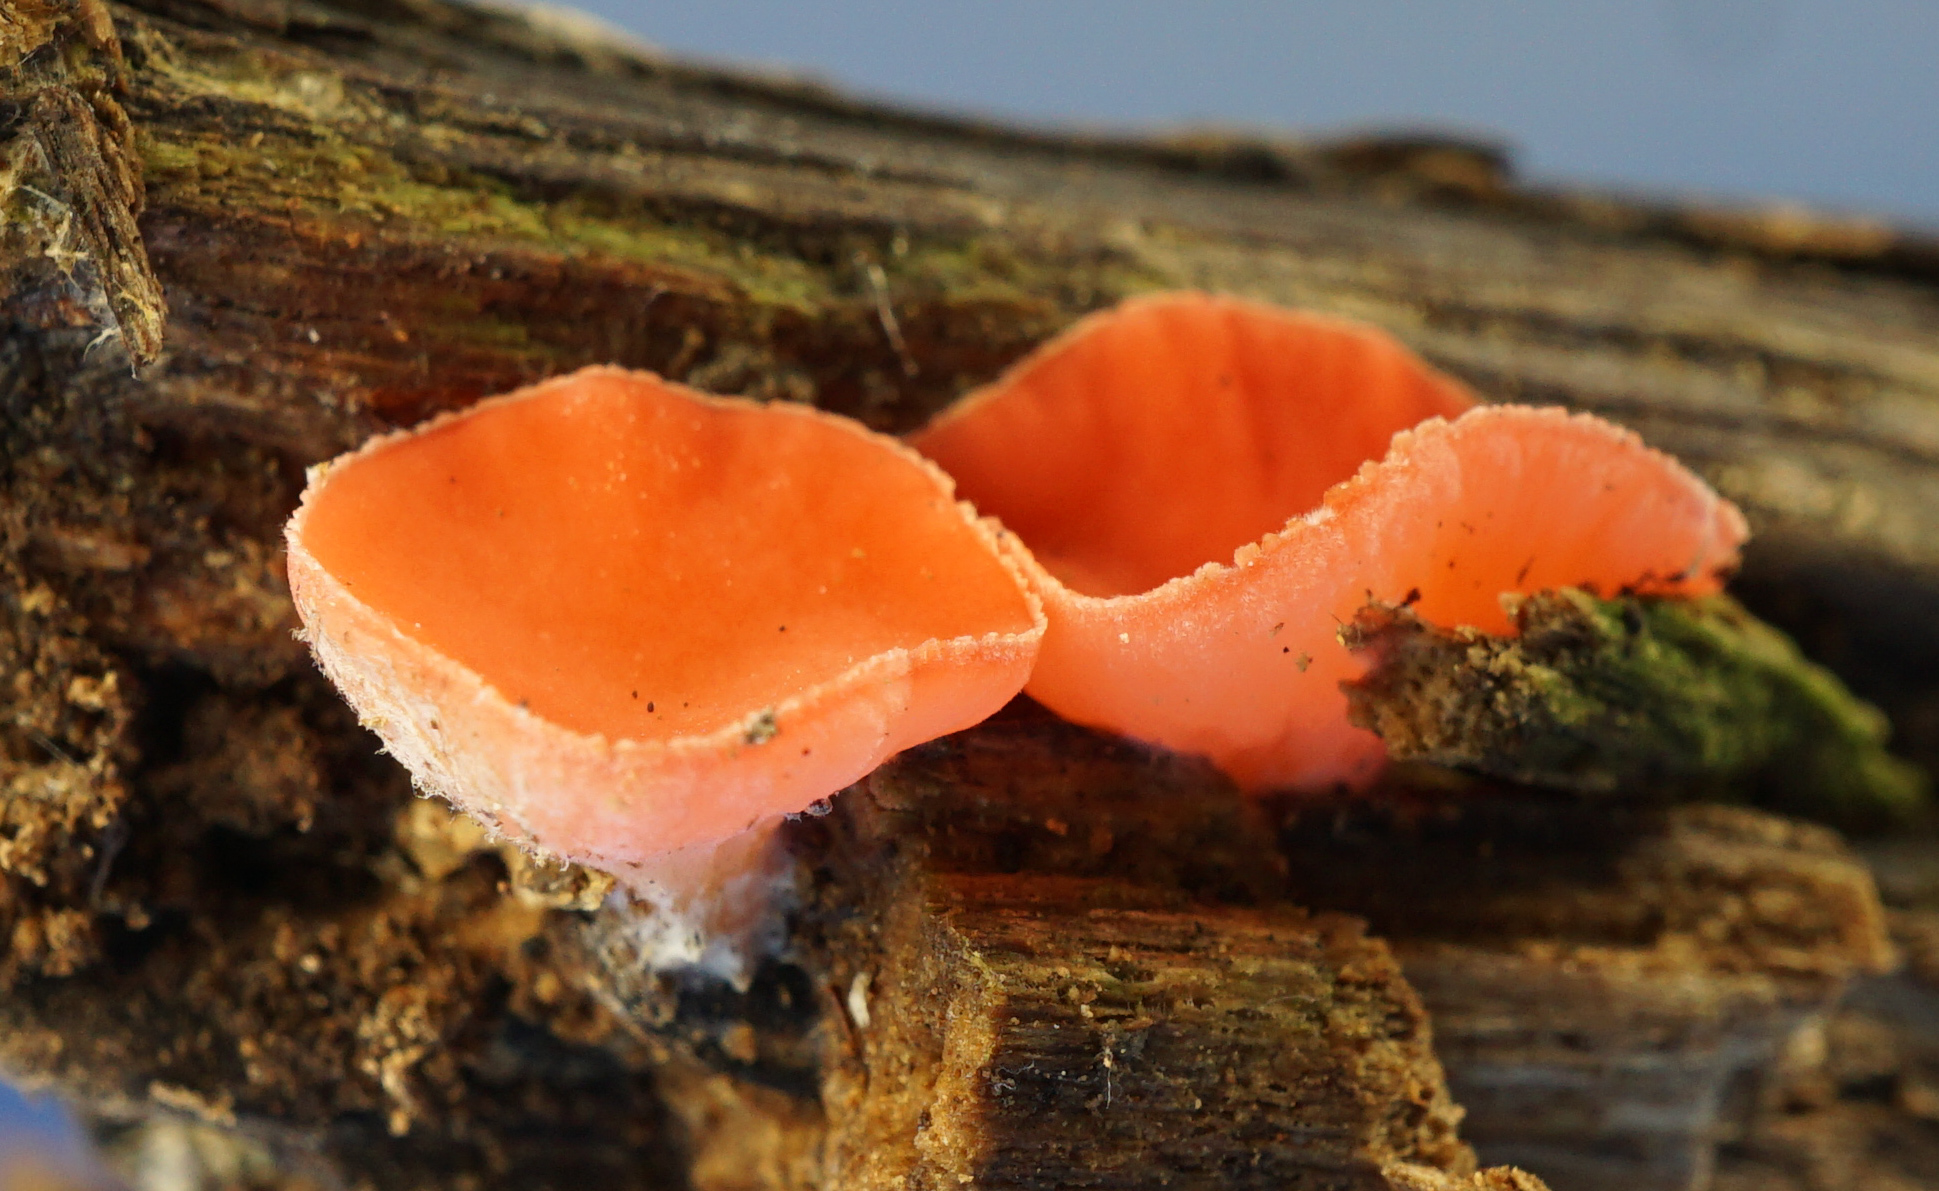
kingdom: Fungi
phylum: Ascomycota
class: Pezizomycetes
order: Pezizales
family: Sarcoscyphaceae
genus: Sarcoscypha
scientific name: Sarcoscypha occidentalis
